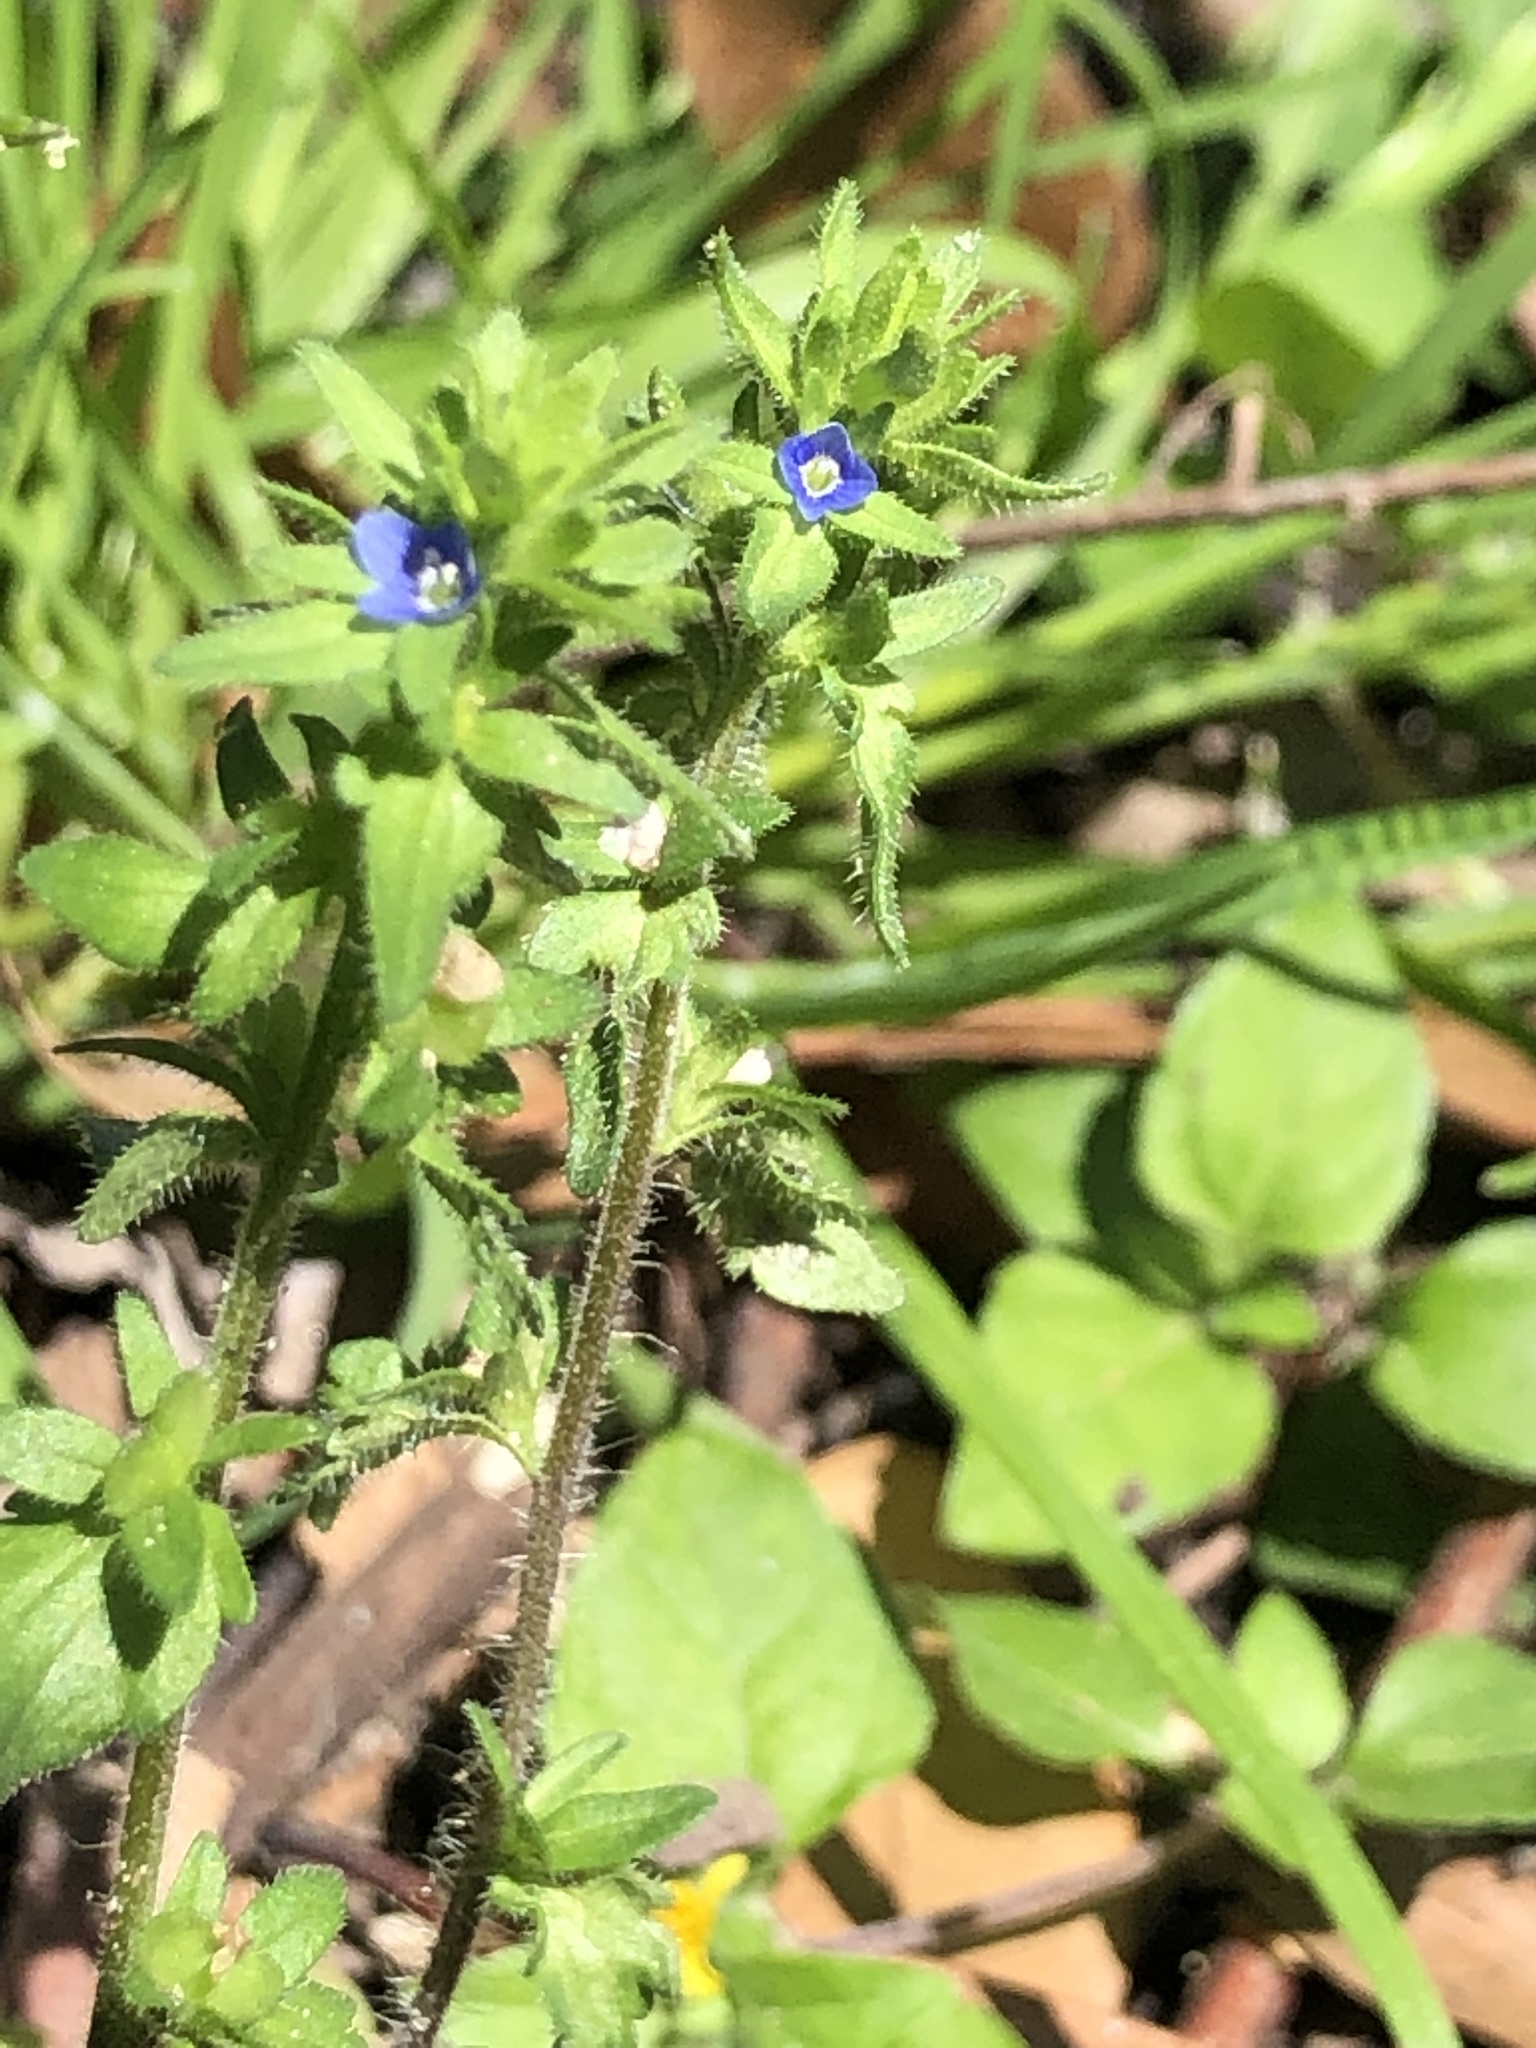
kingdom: Plantae
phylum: Tracheophyta
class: Magnoliopsida
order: Lamiales
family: Plantaginaceae
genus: Veronica
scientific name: Veronica arvensis
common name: Corn speedwell
